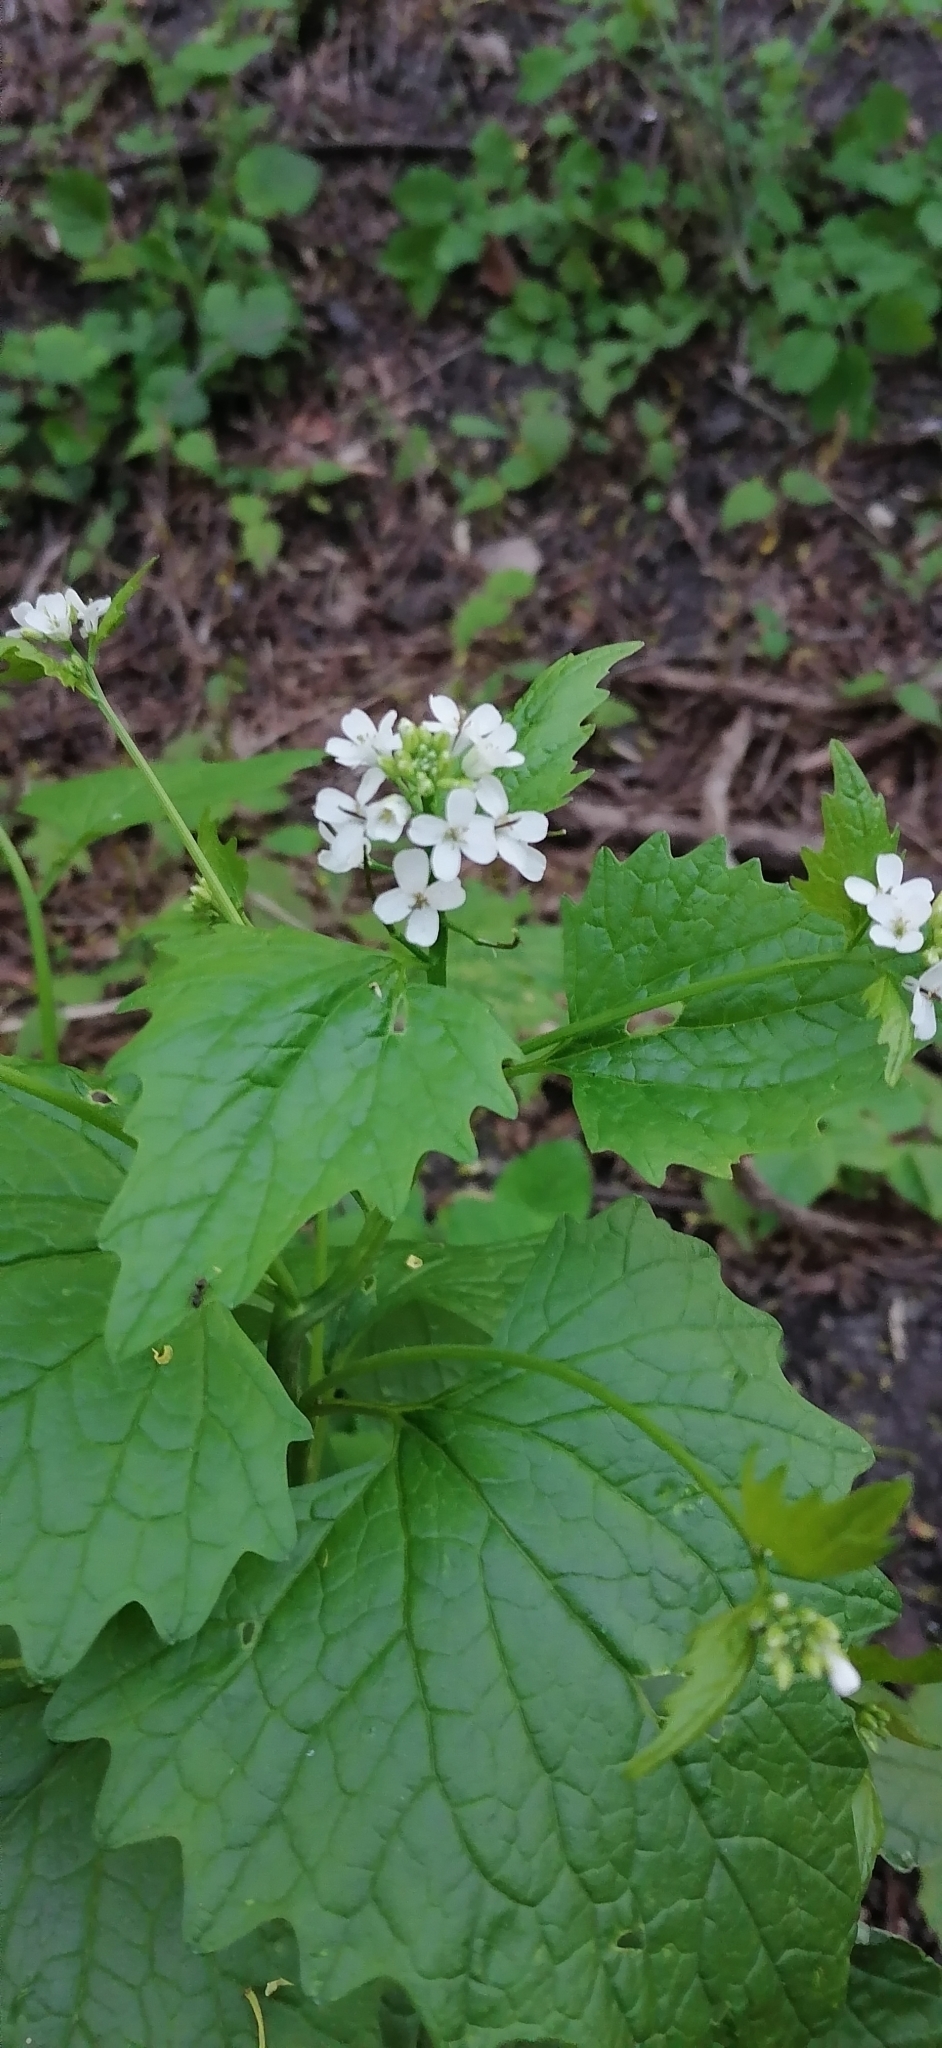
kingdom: Plantae
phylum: Tracheophyta
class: Magnoliopsida
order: Brassicales
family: Brassicaceae
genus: Alliaria
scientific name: Alliaria petiolata
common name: Garlic mustard
